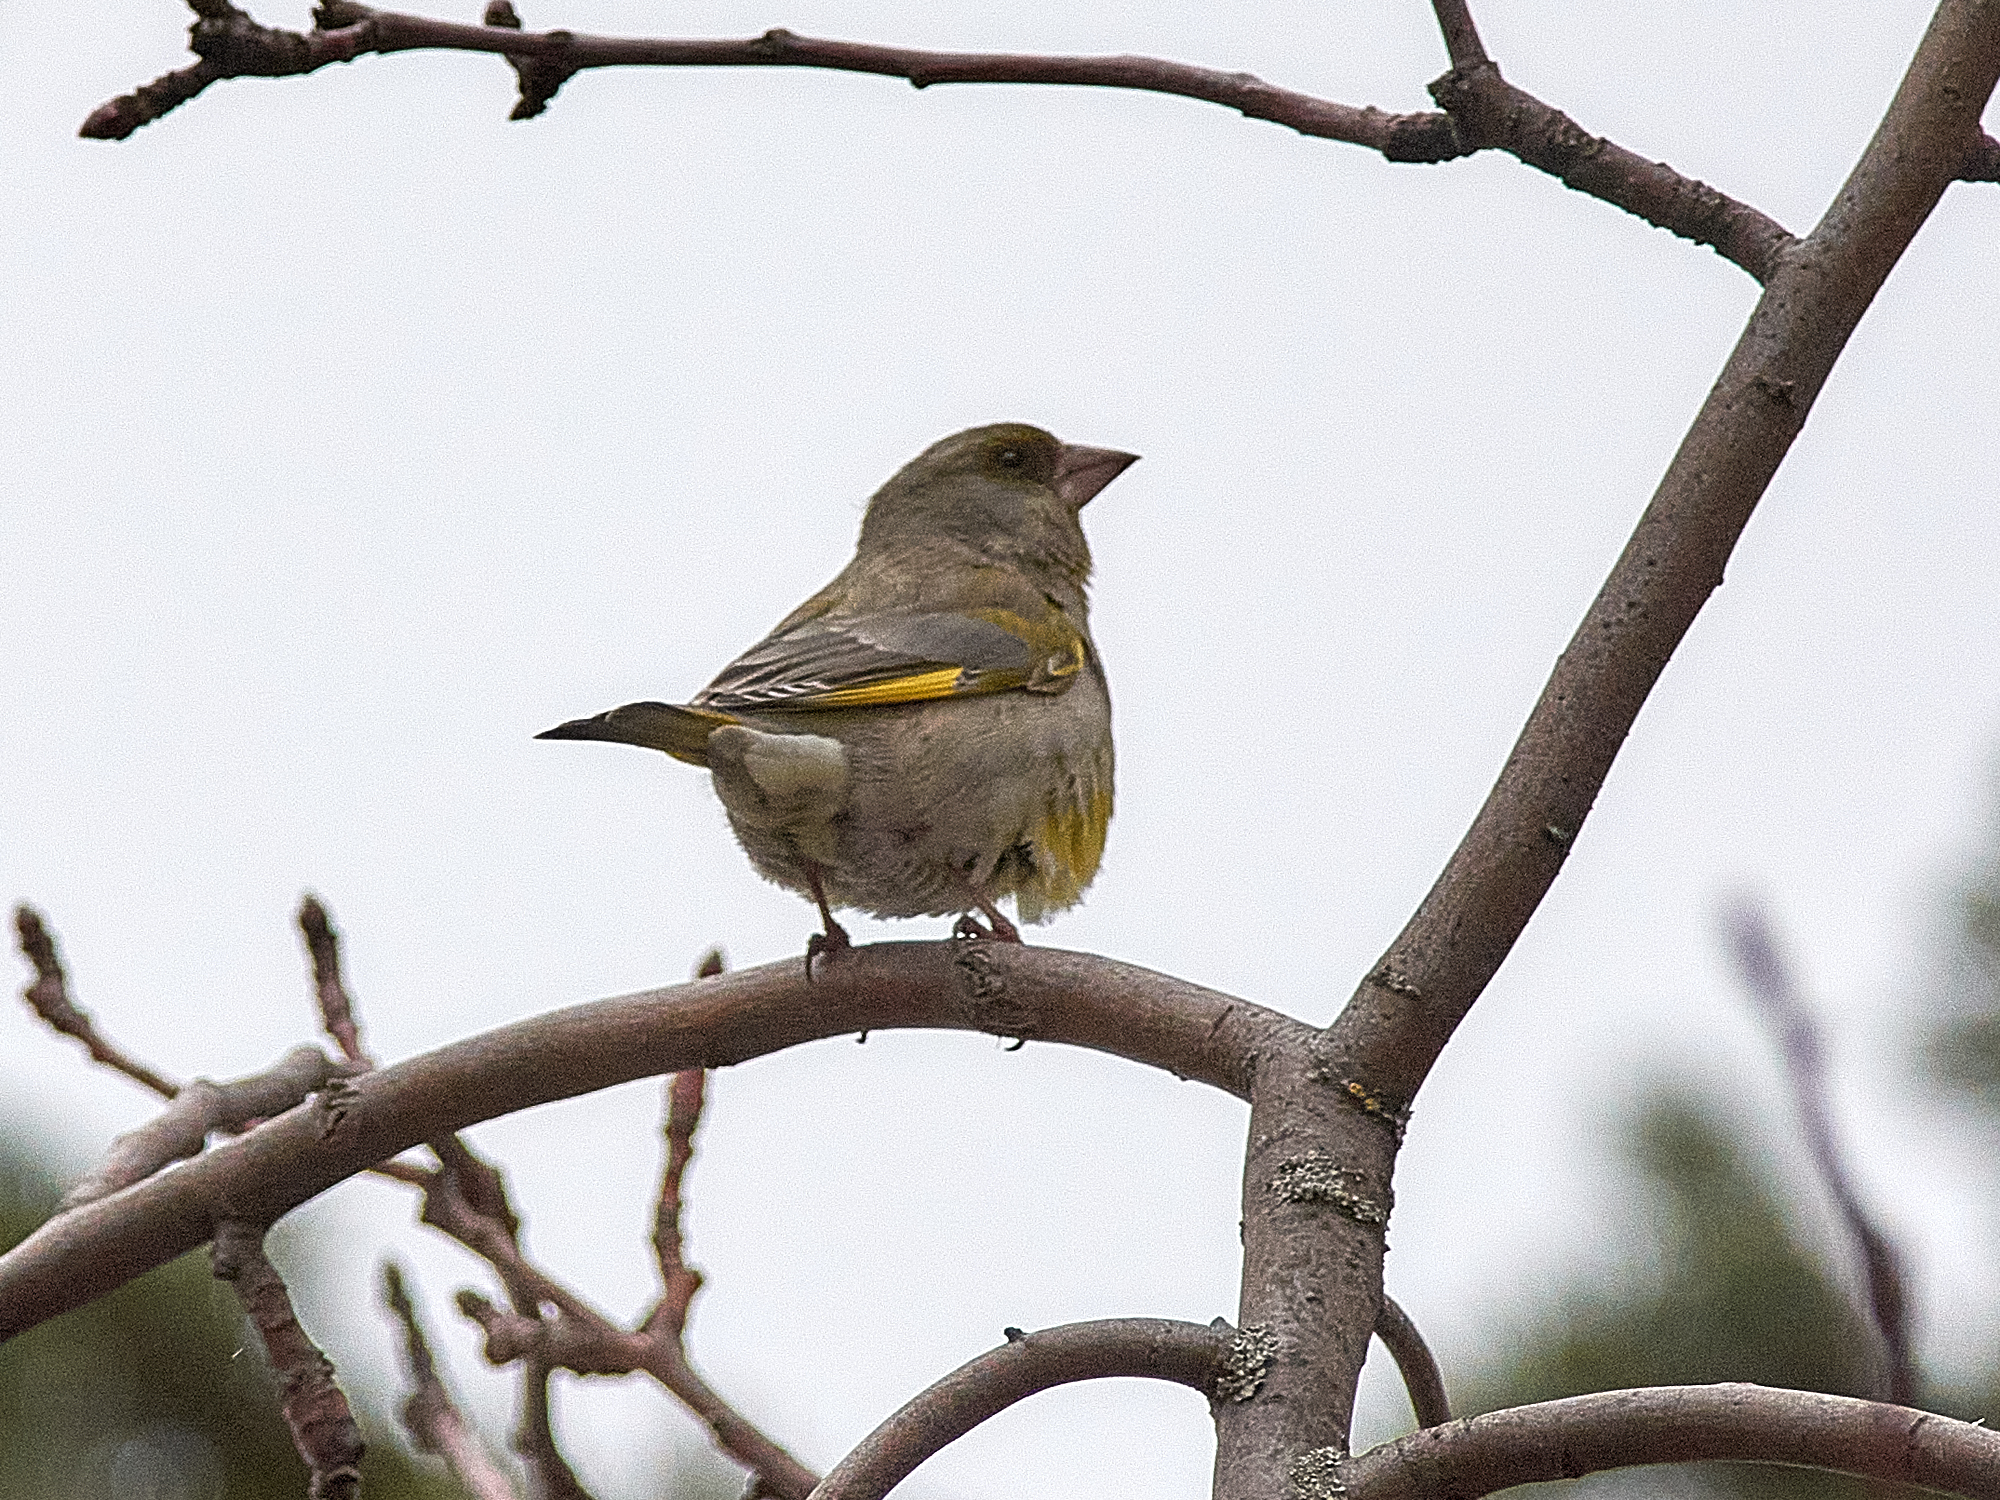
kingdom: Plantae
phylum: Tracheophyta
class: Liliopsida
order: Poales
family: Poaceae
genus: Chloris
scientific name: Chloris chloris
